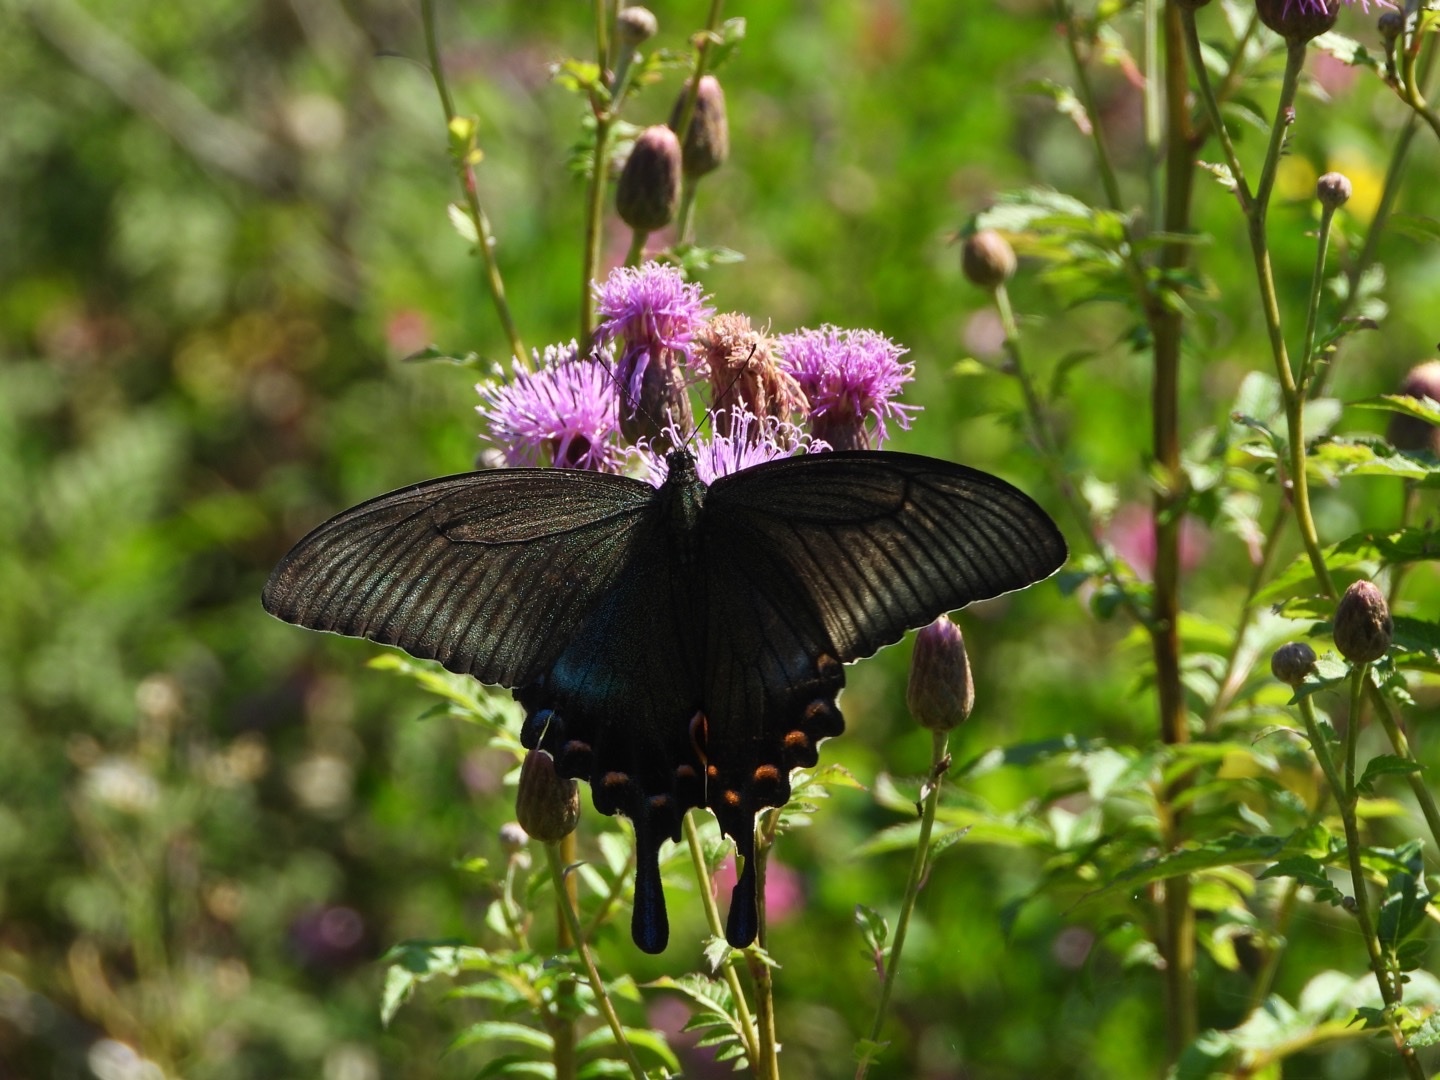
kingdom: Animalia
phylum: Arthropoda
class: Insecta
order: Lepidoptera
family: Papilionidae
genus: Papilio
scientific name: Papilio maackii
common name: Alpine black swallowtail
